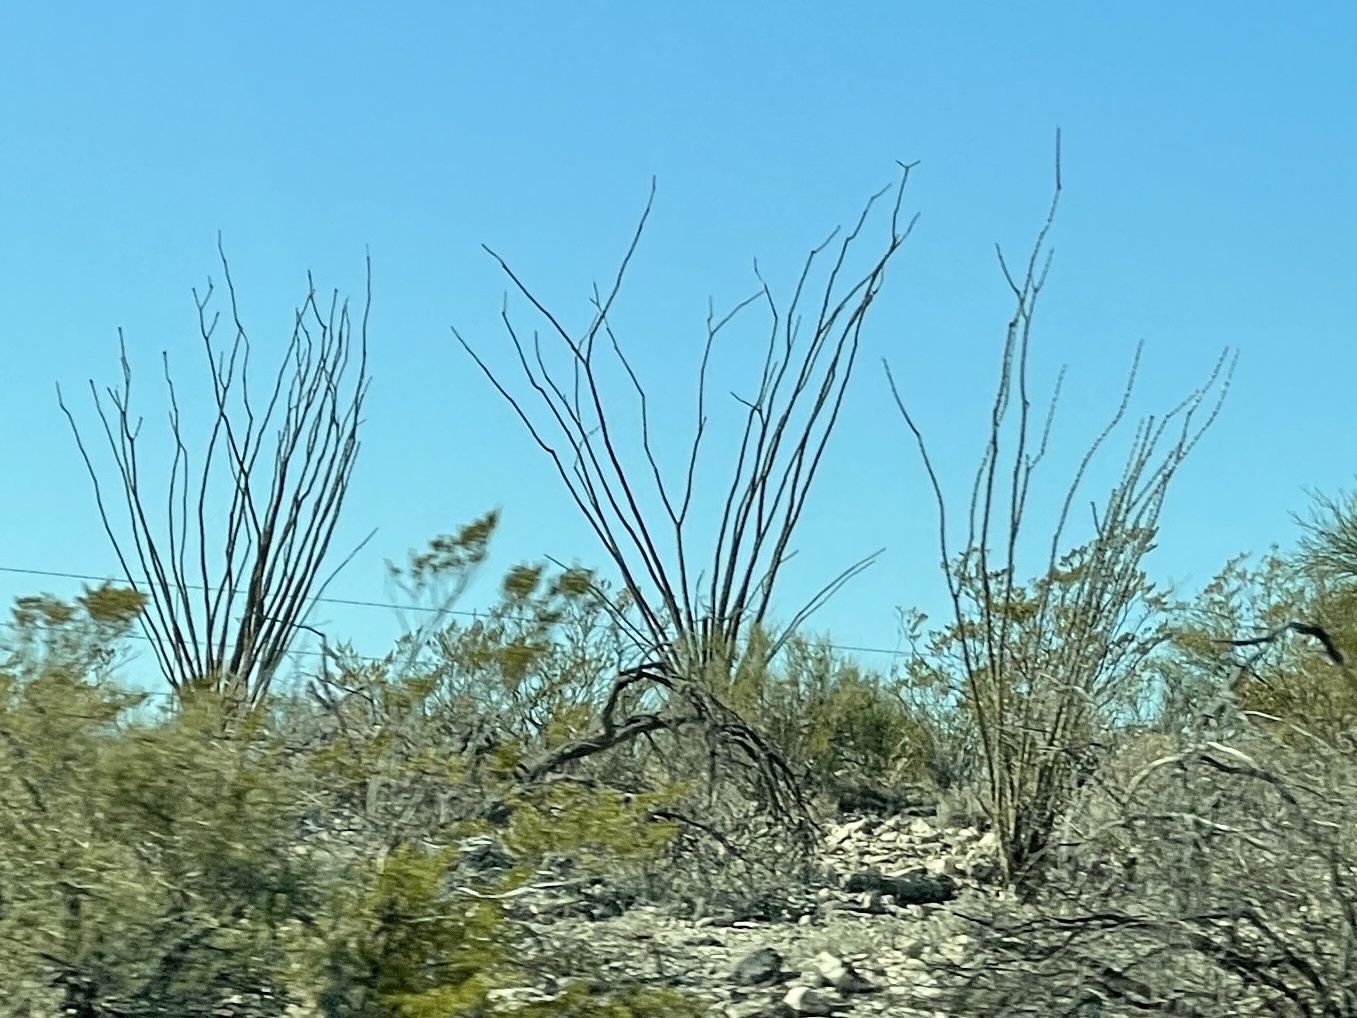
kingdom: Plantae
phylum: Tracheophyta
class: Magnoliopsida
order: Ericales
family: Fouquieriaceae
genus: Fouquieria
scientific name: Fouquieria splendens
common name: Vine-cactus
